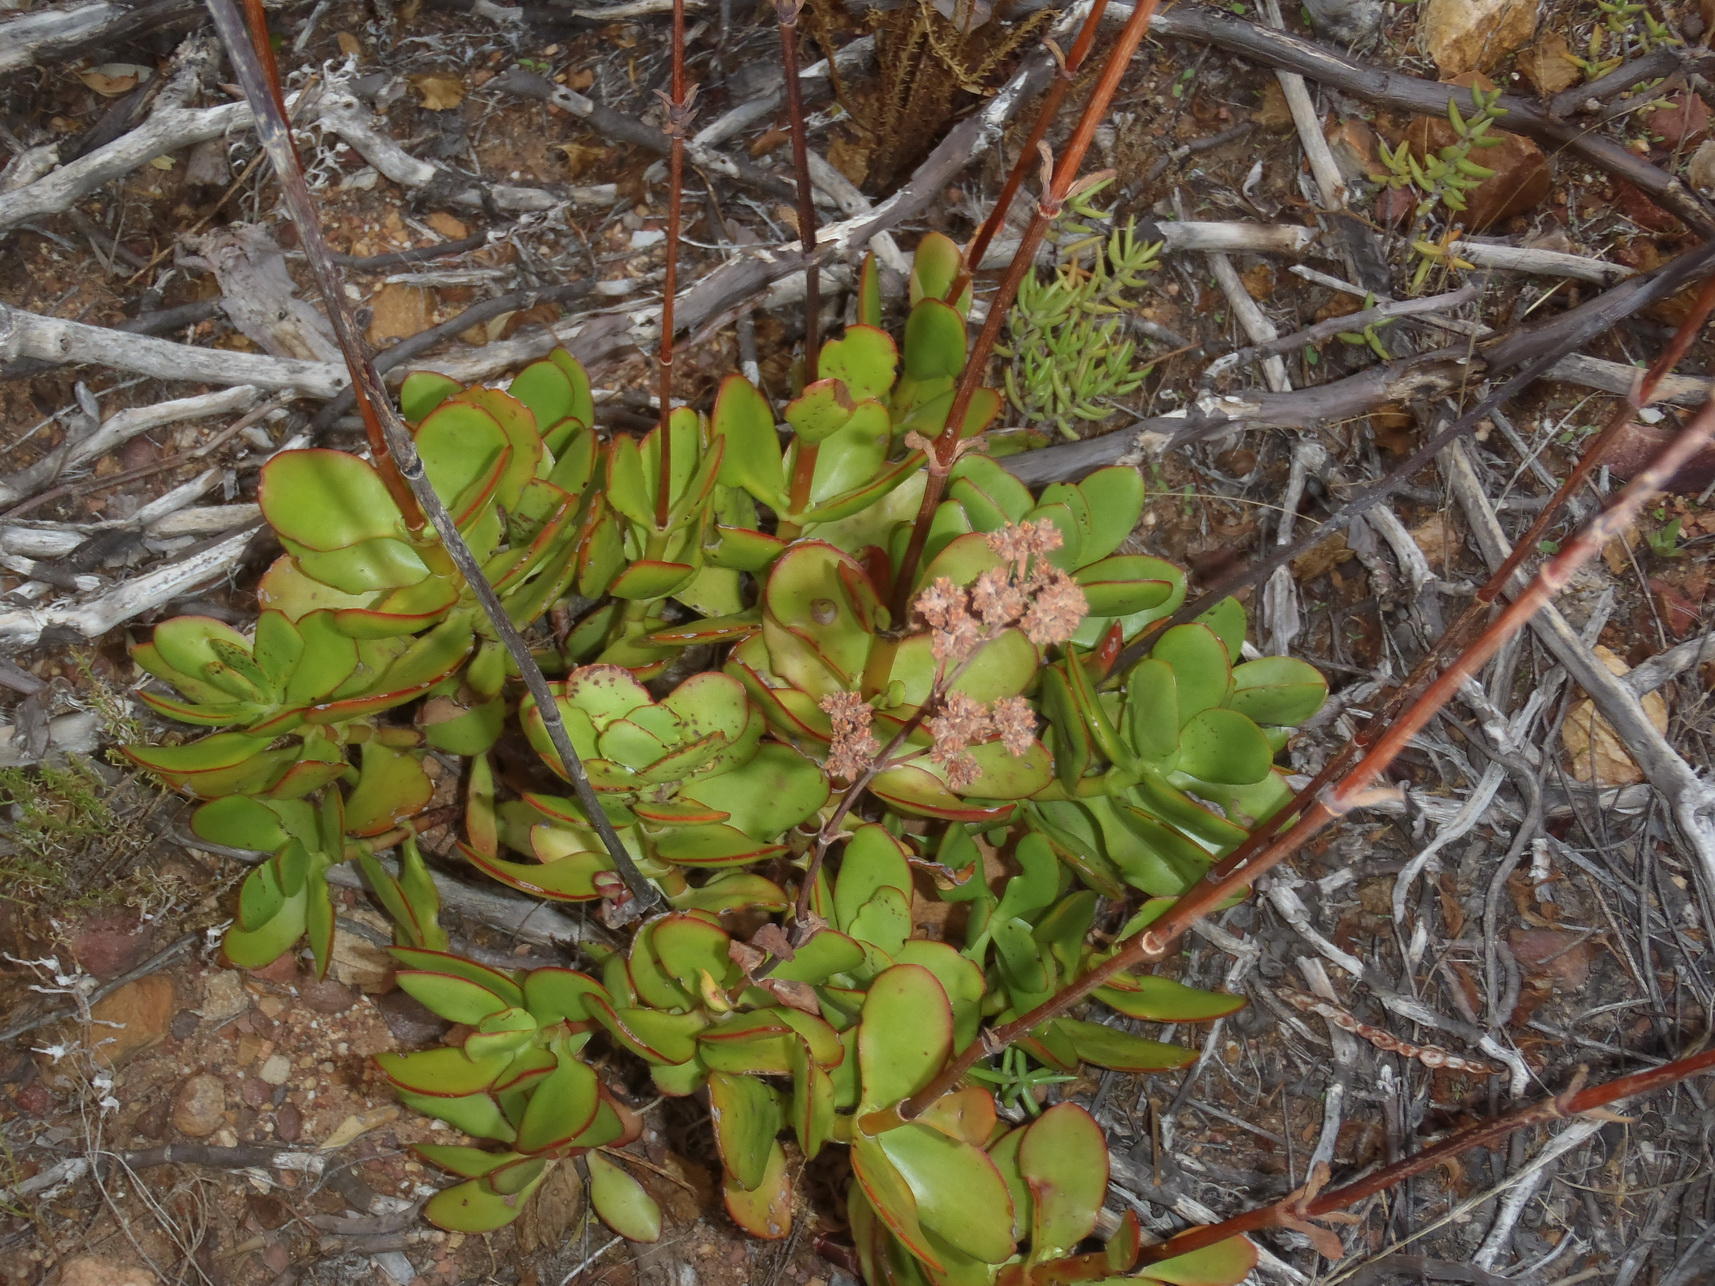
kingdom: Plantae
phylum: Tracheophyta
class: Magnoliopsida
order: Saxifragales
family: Crassulaceae
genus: Crassula
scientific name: Crassula cultrata
